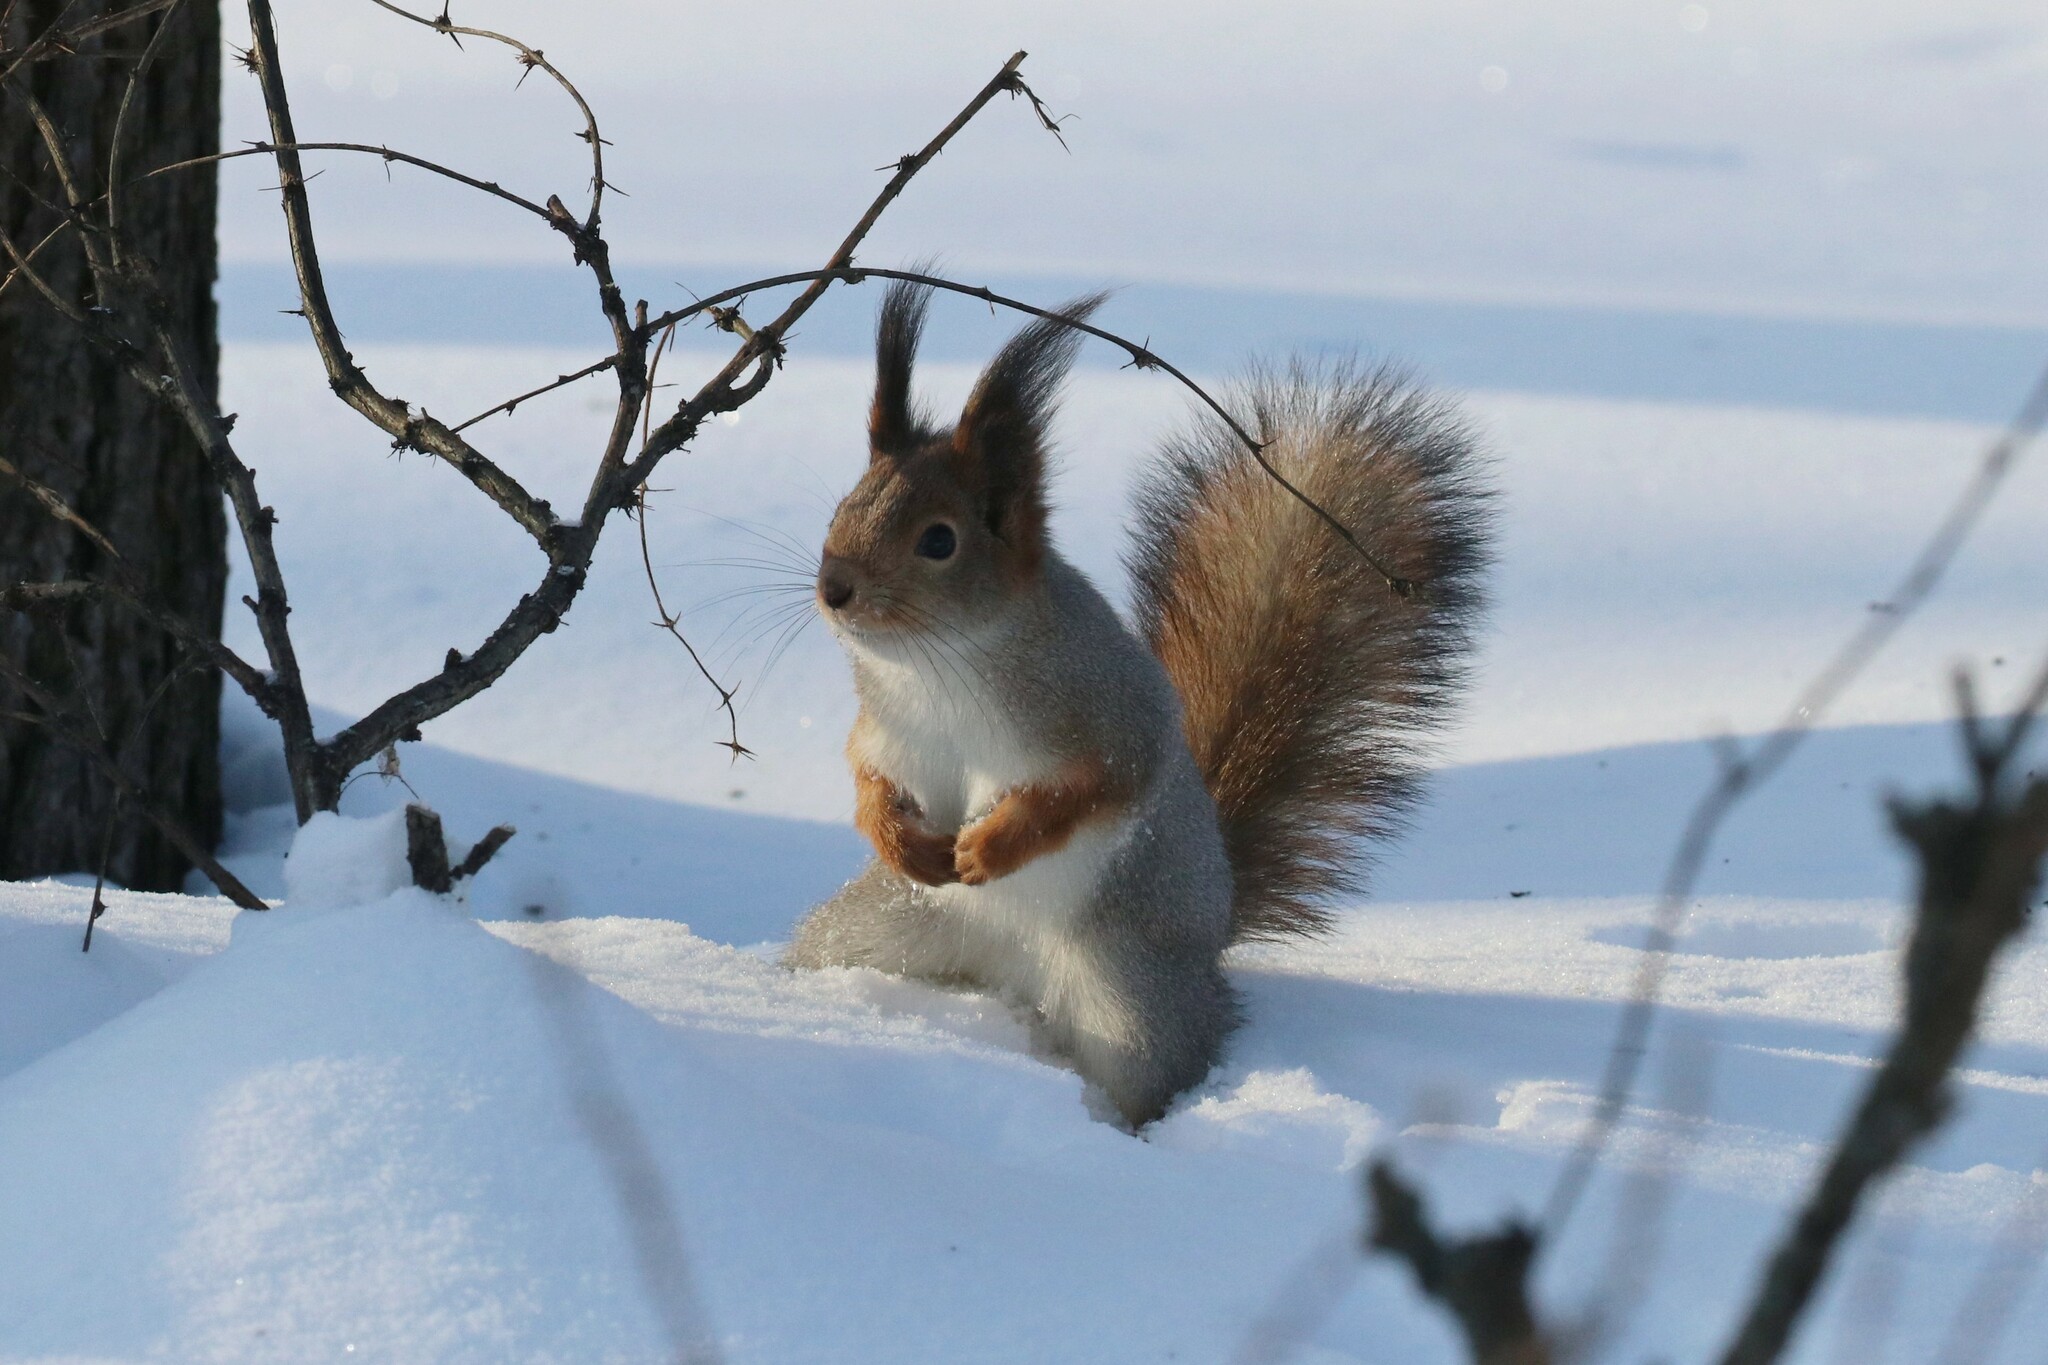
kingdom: Animalia
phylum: Chordata
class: Mammalia
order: Rodentia
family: Sciuridae
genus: Sciurus
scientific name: Sciurus vulgaris
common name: Eurasian red squirrel
